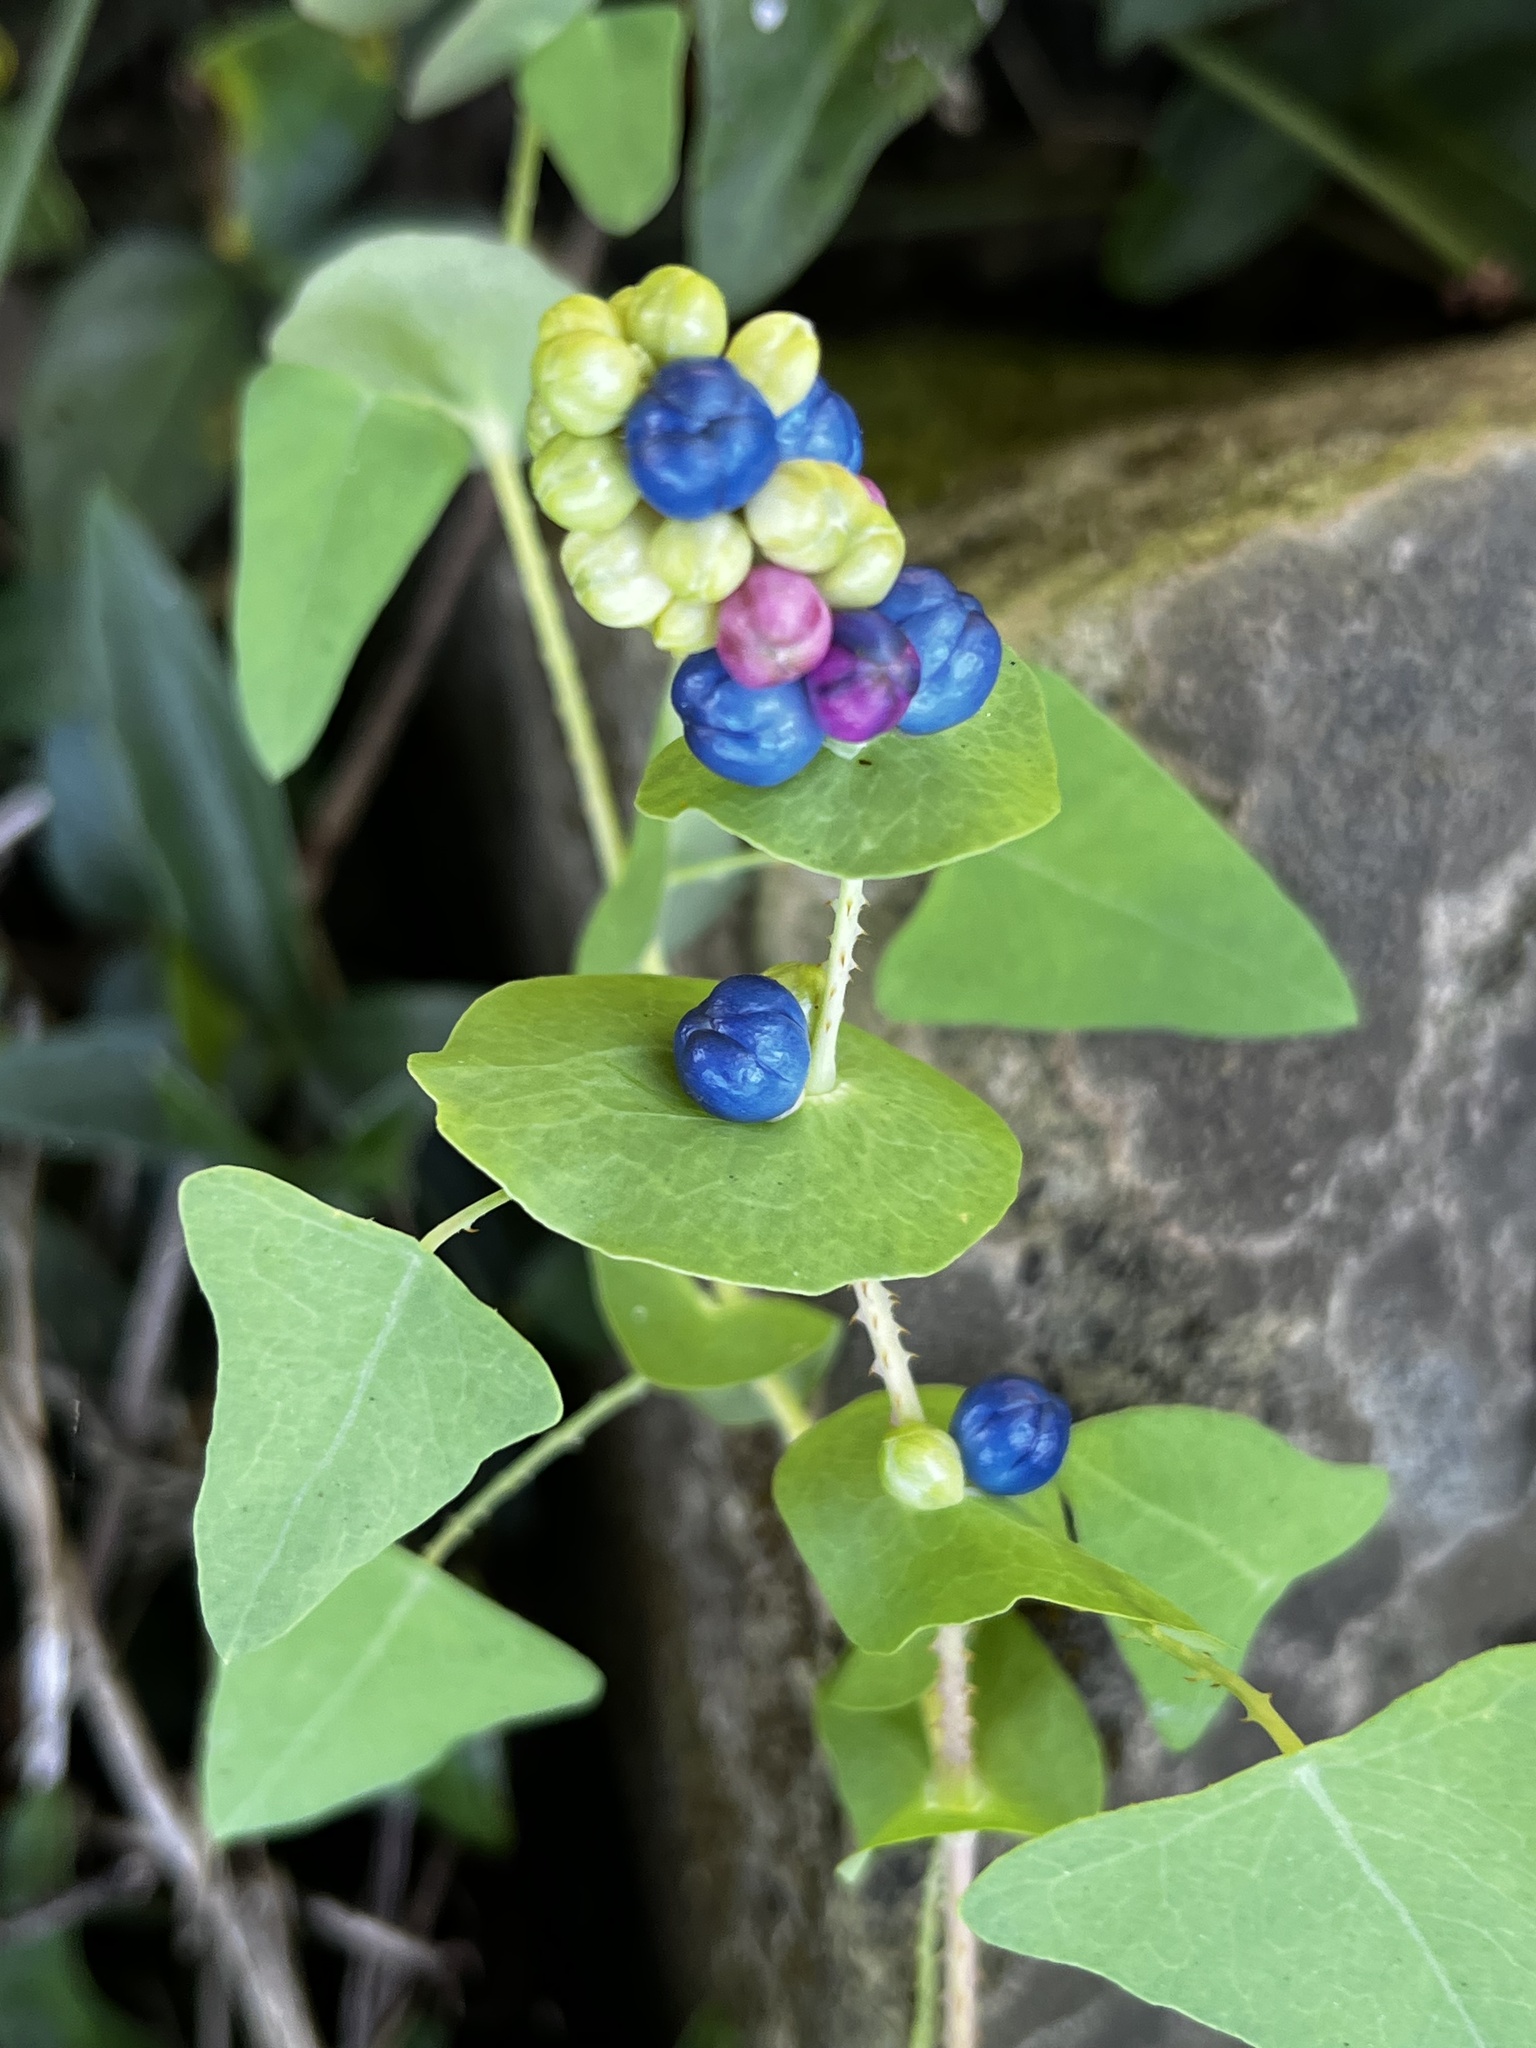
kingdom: Plantae
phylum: Tracheophyta
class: Magnoliopsida
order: Caryophyllales
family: Polygonaceae
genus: Persicaria
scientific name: Persicaria perfoliata
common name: Asiatic tearthumb
